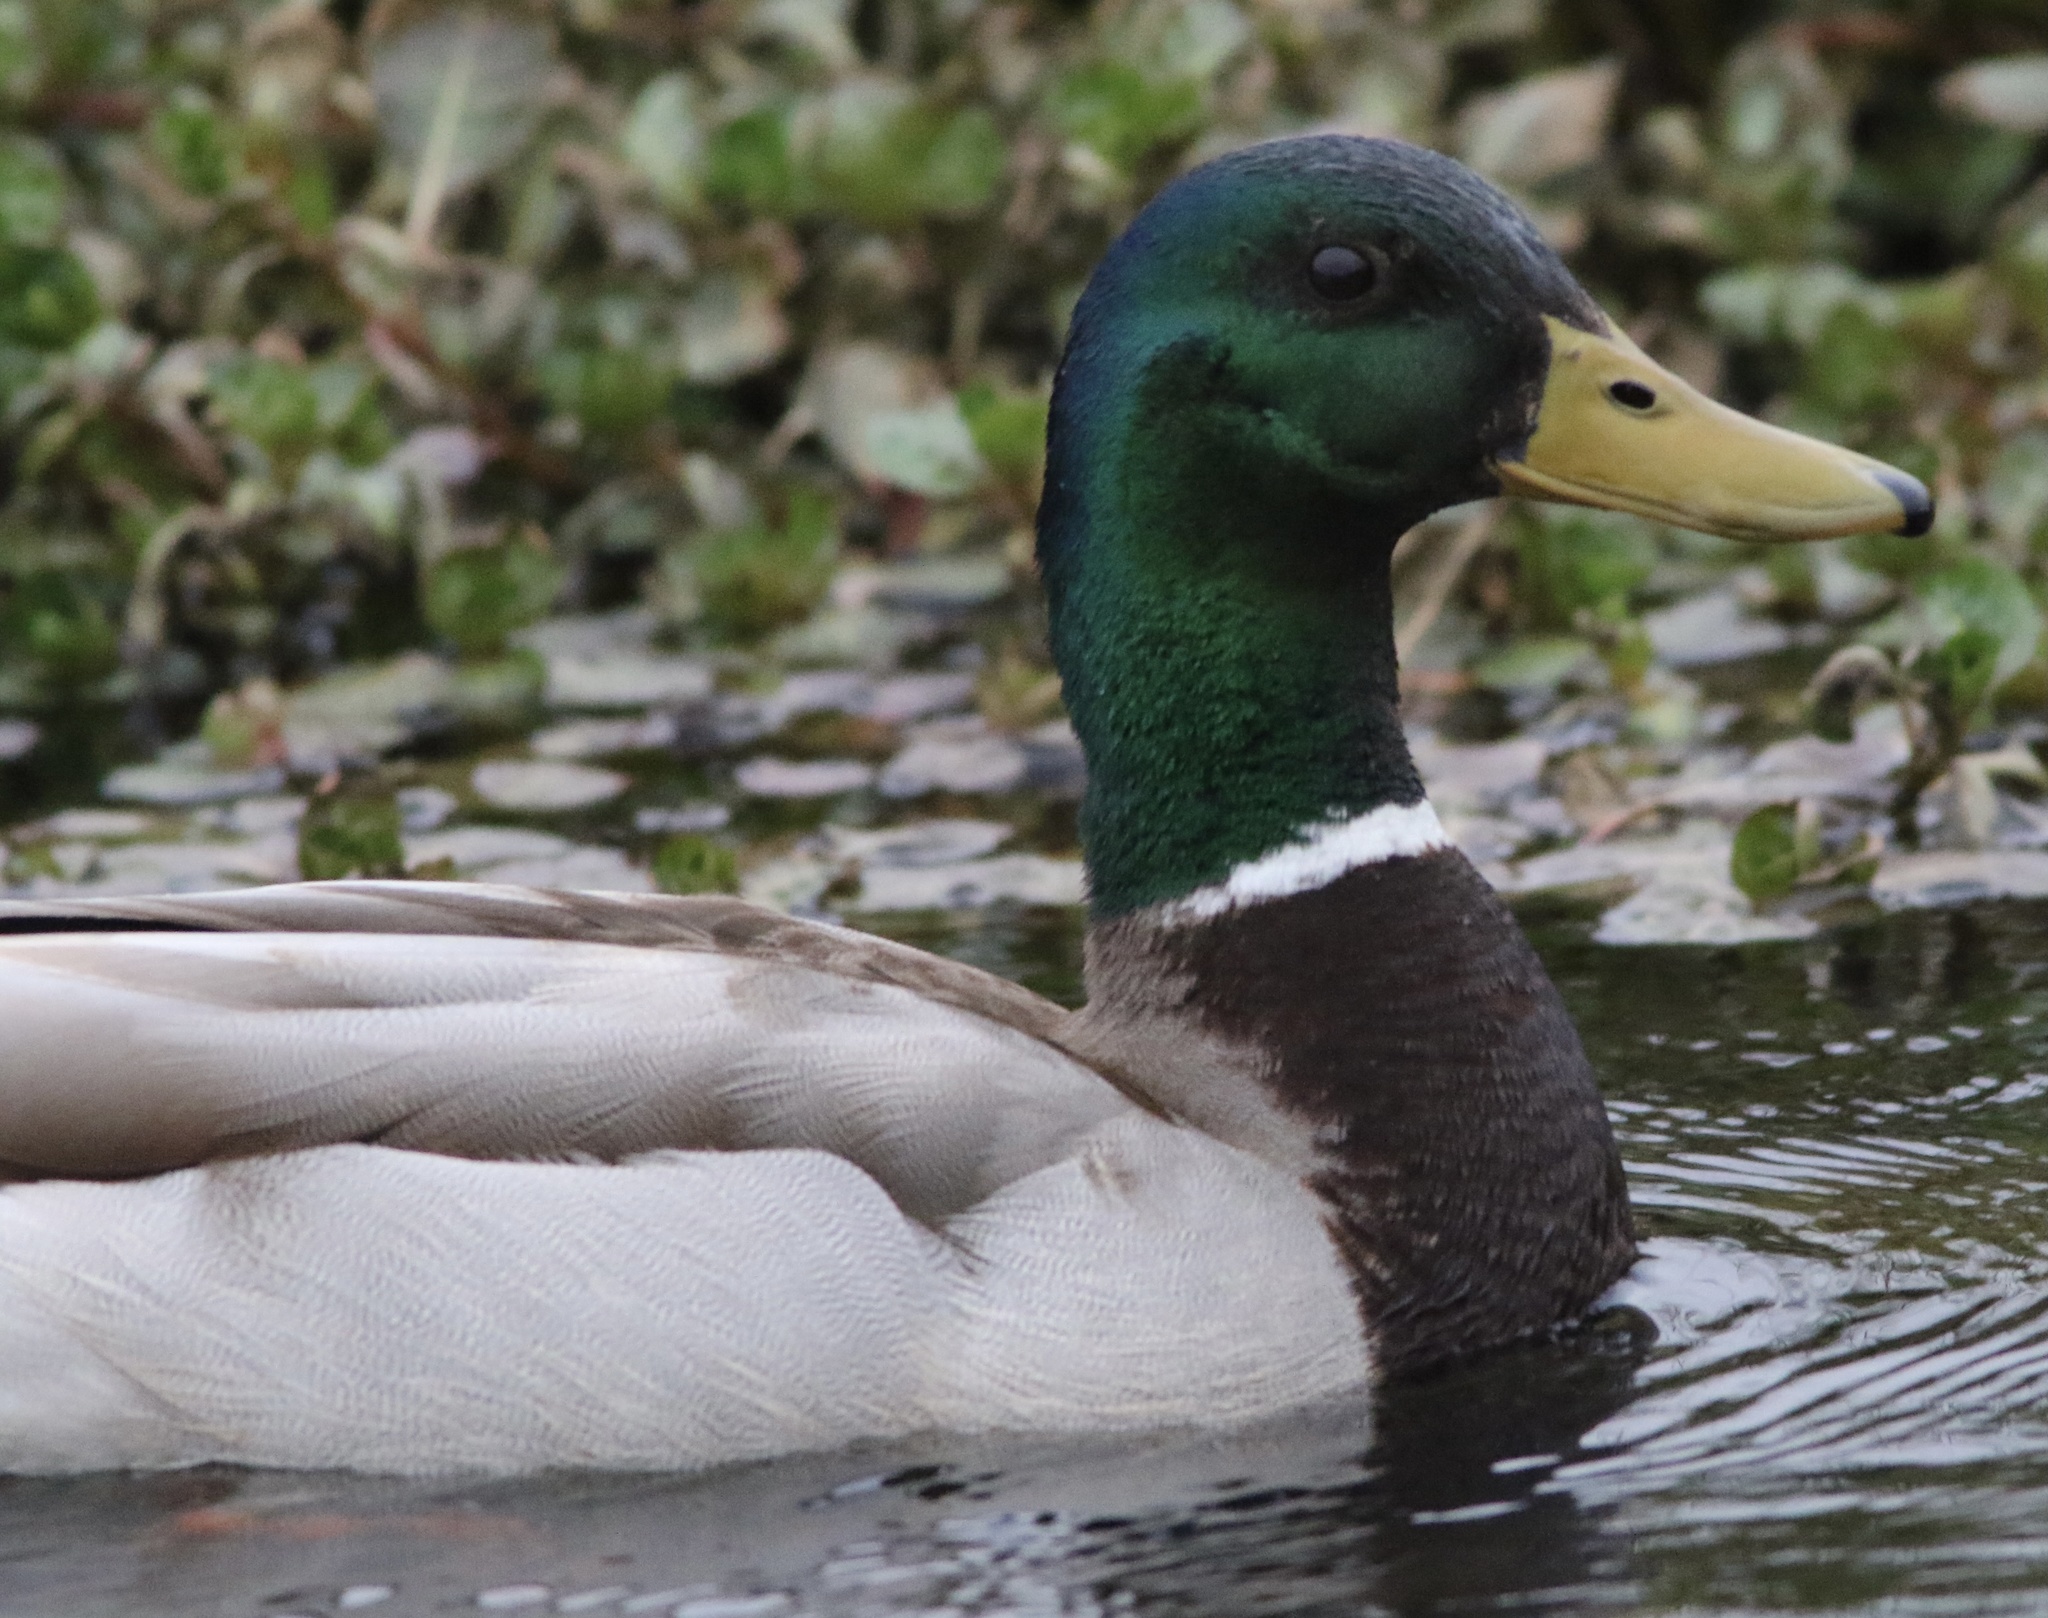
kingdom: Animalia
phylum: Chordata
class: Aves
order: Anseriformes
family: Anatidae
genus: Anas
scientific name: Anas platyrhynchos
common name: Mallard
